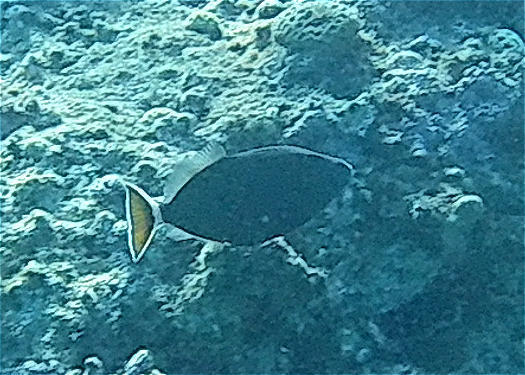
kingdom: Animalia
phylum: Chordata
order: Tetraodontiformes
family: Balistidae
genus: Sufflamen
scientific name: Sufflamen albicaudatum
